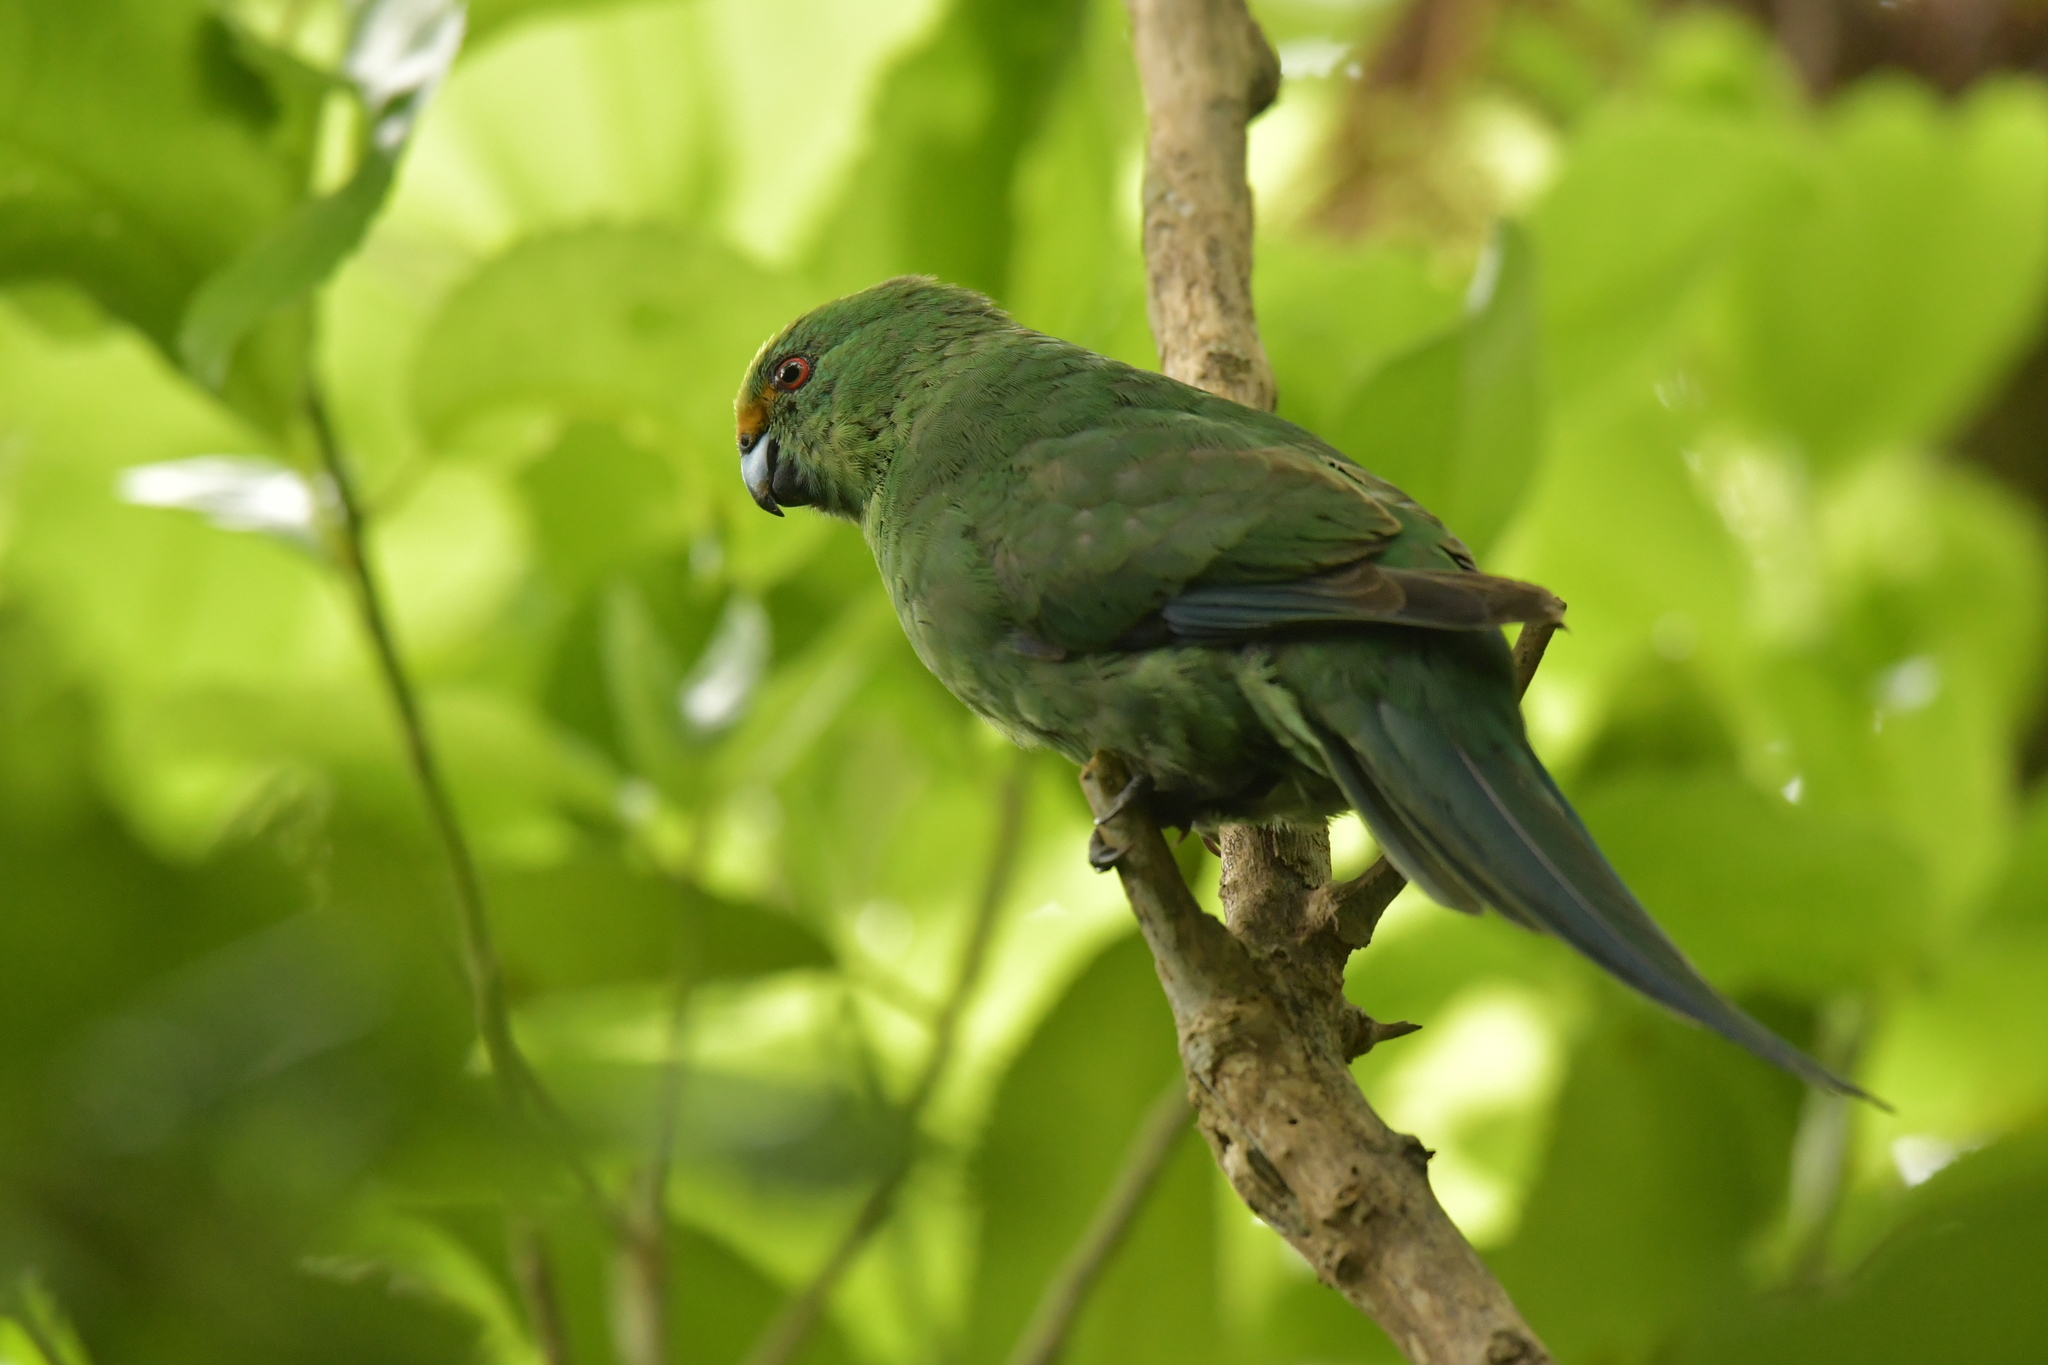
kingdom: Animalia
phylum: Chordata
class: Aves
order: Psittaciformes
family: Psittacidae
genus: Cyanoramphus
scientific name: Cyanoramphus malherbi
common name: Malherbe's parakeet
